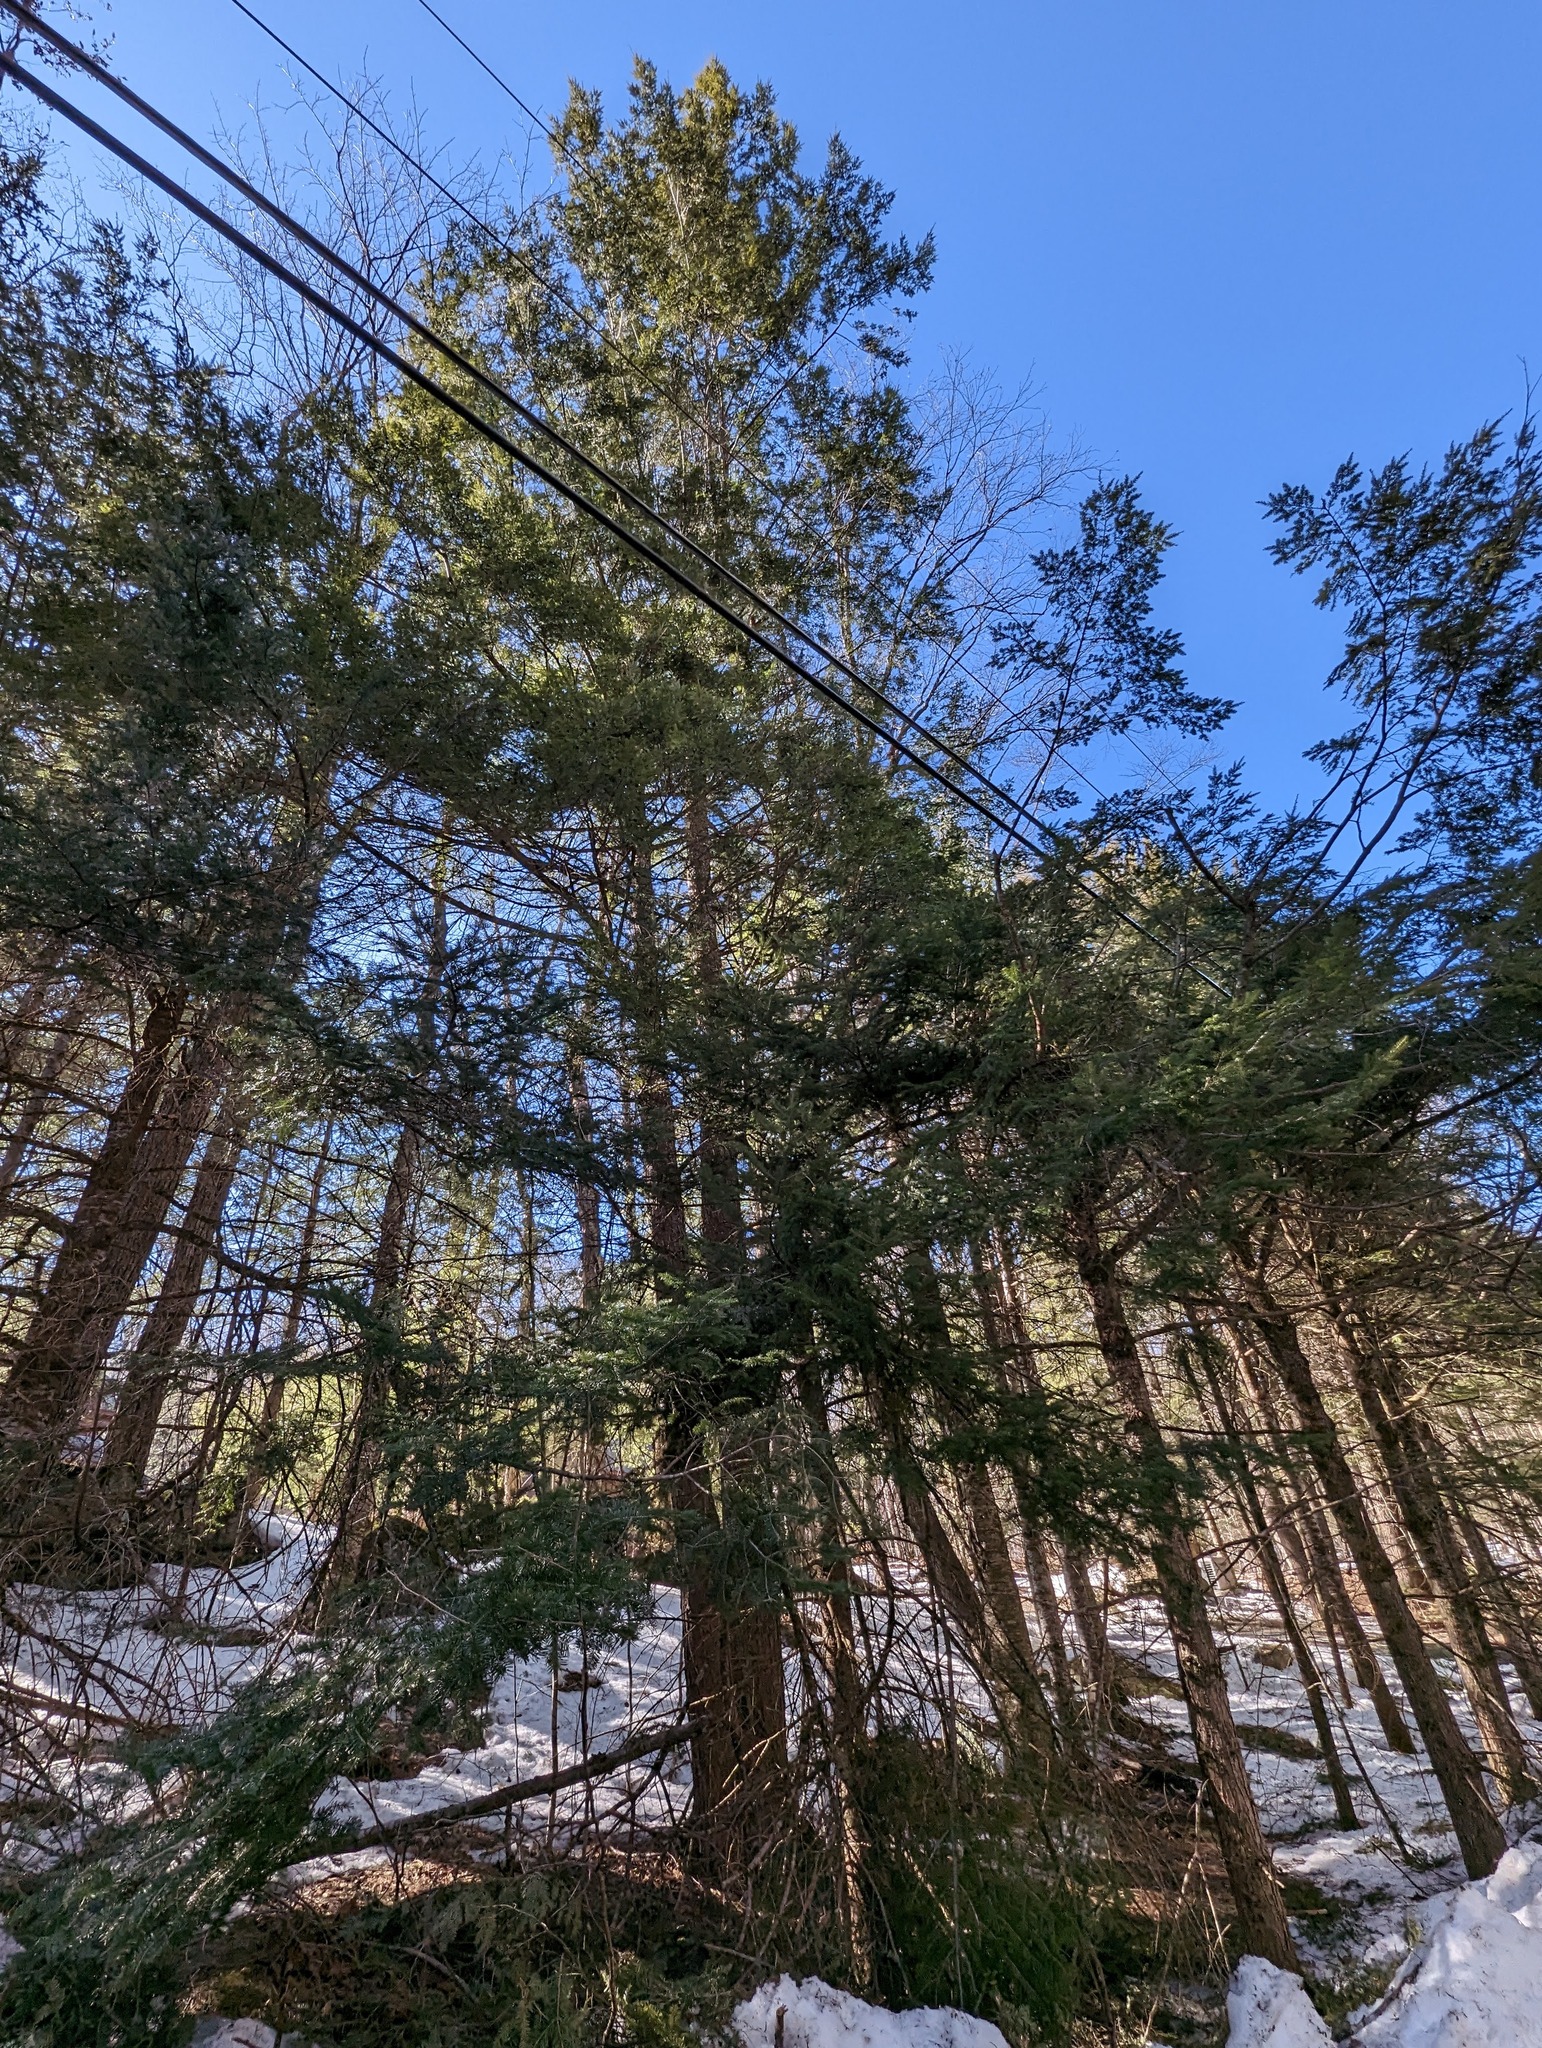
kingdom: Plantae
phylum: Tracheophyta
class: Pinopsida
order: Pinales
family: Pinaceae
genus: Abies
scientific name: Abies balsamea
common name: Balsam fir
